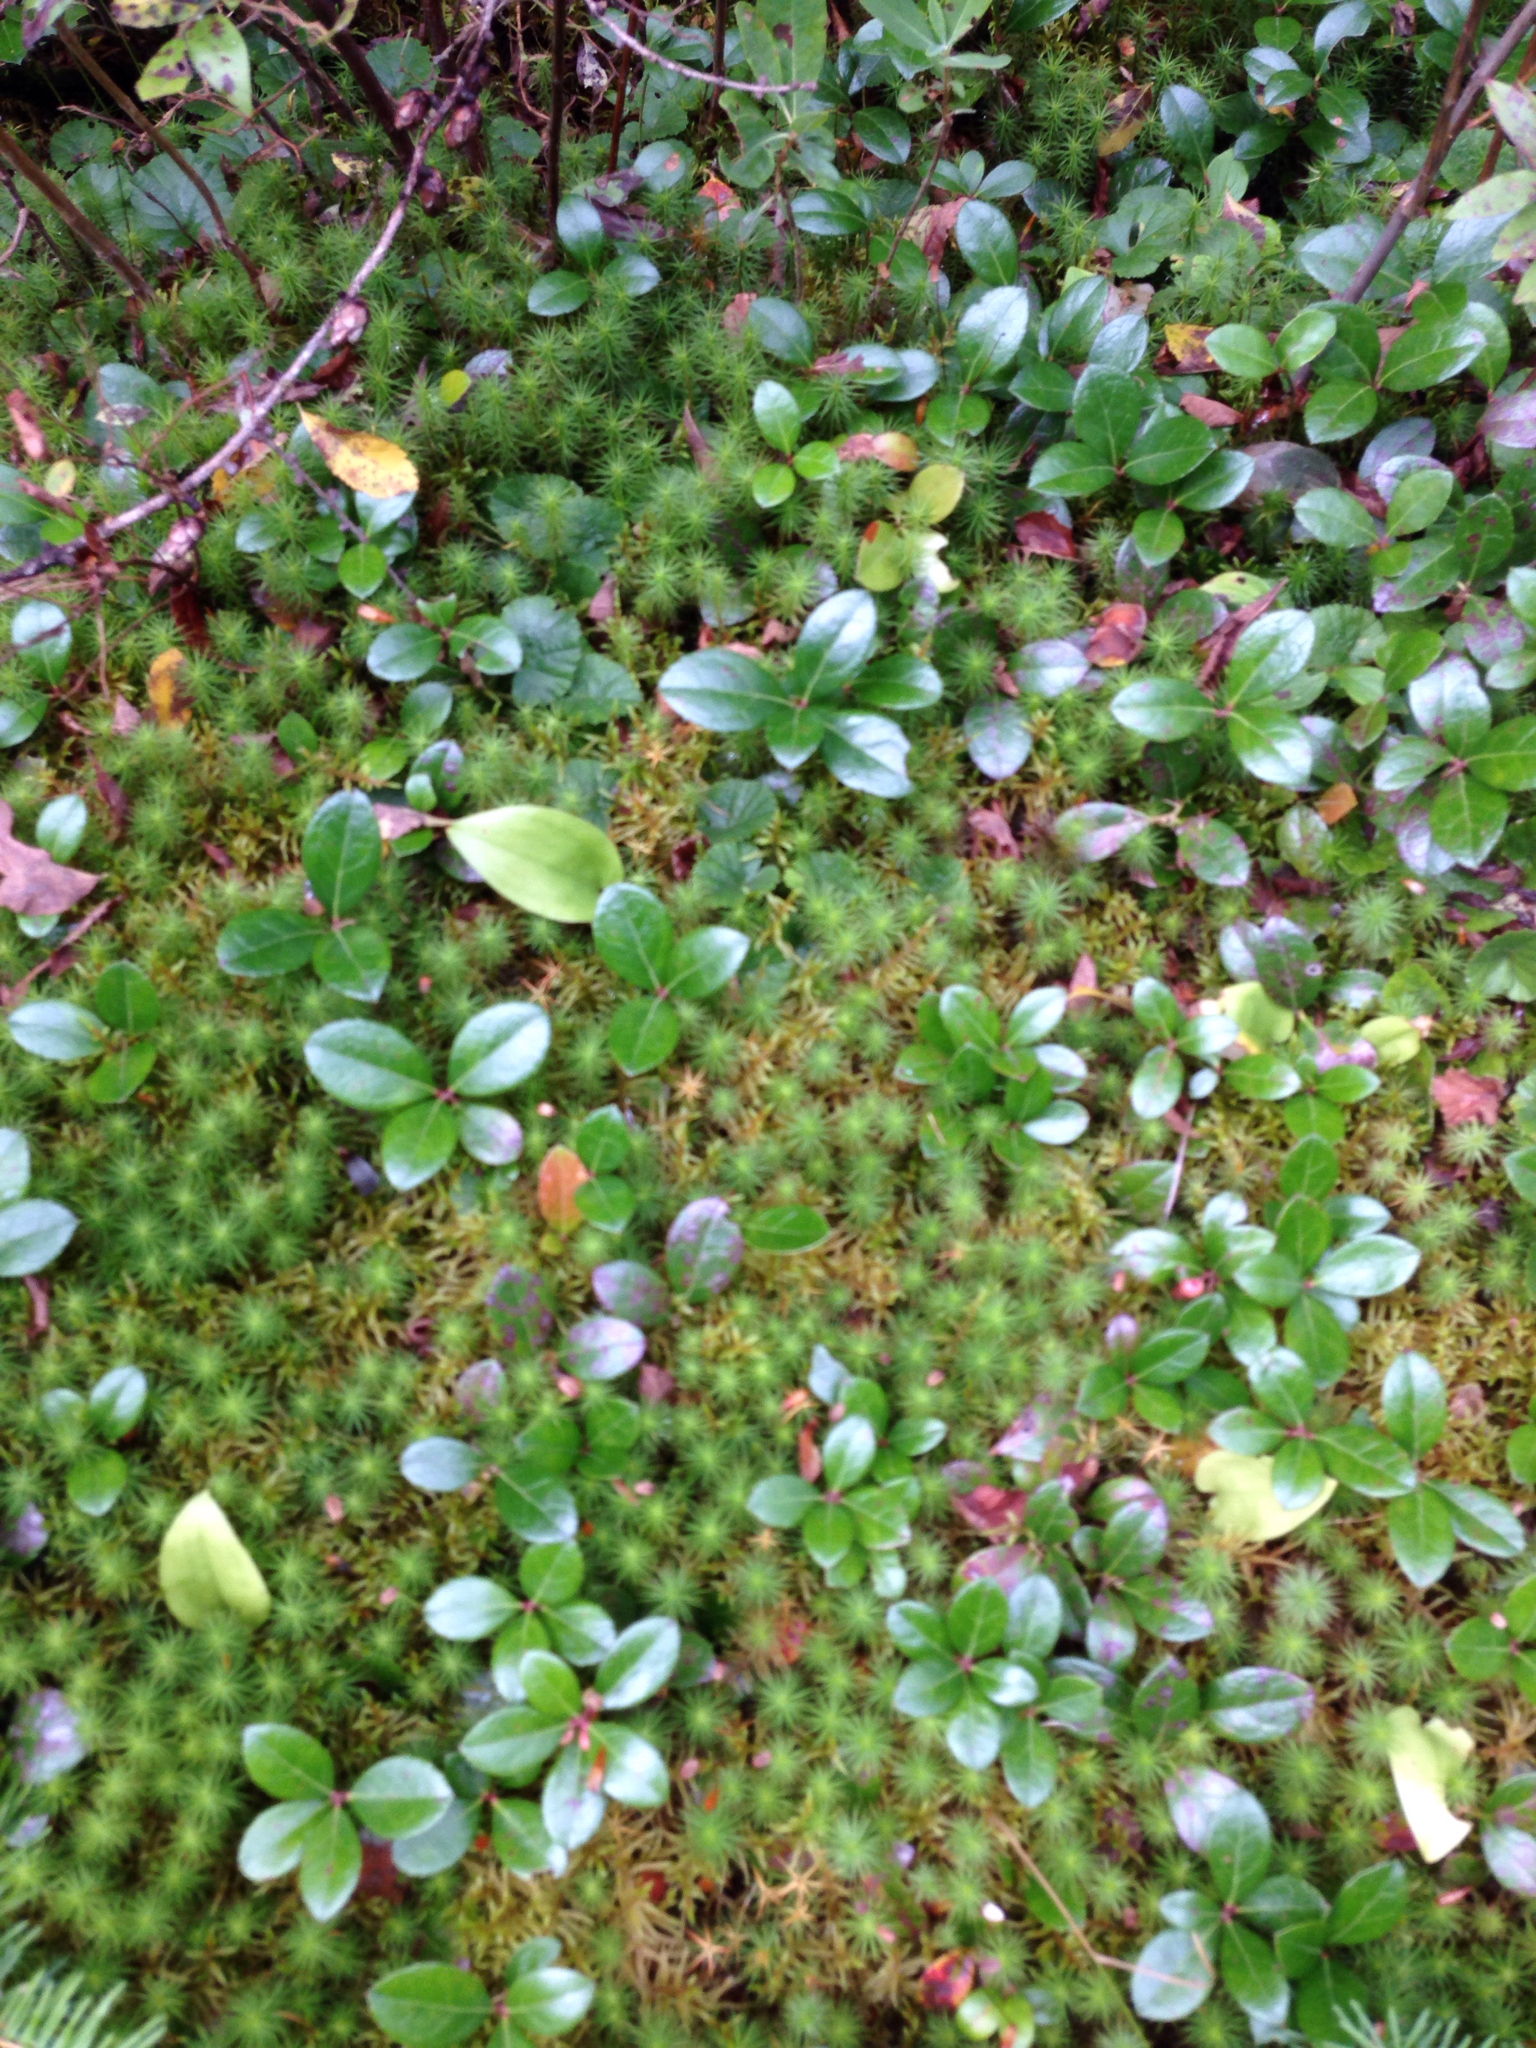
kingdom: Plantae
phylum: Tracheophyta
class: Magnoliopsida
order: Ericales
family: Ericaceae
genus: Gaultheria
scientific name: Gaultheria procumbens
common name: Checkerberry
